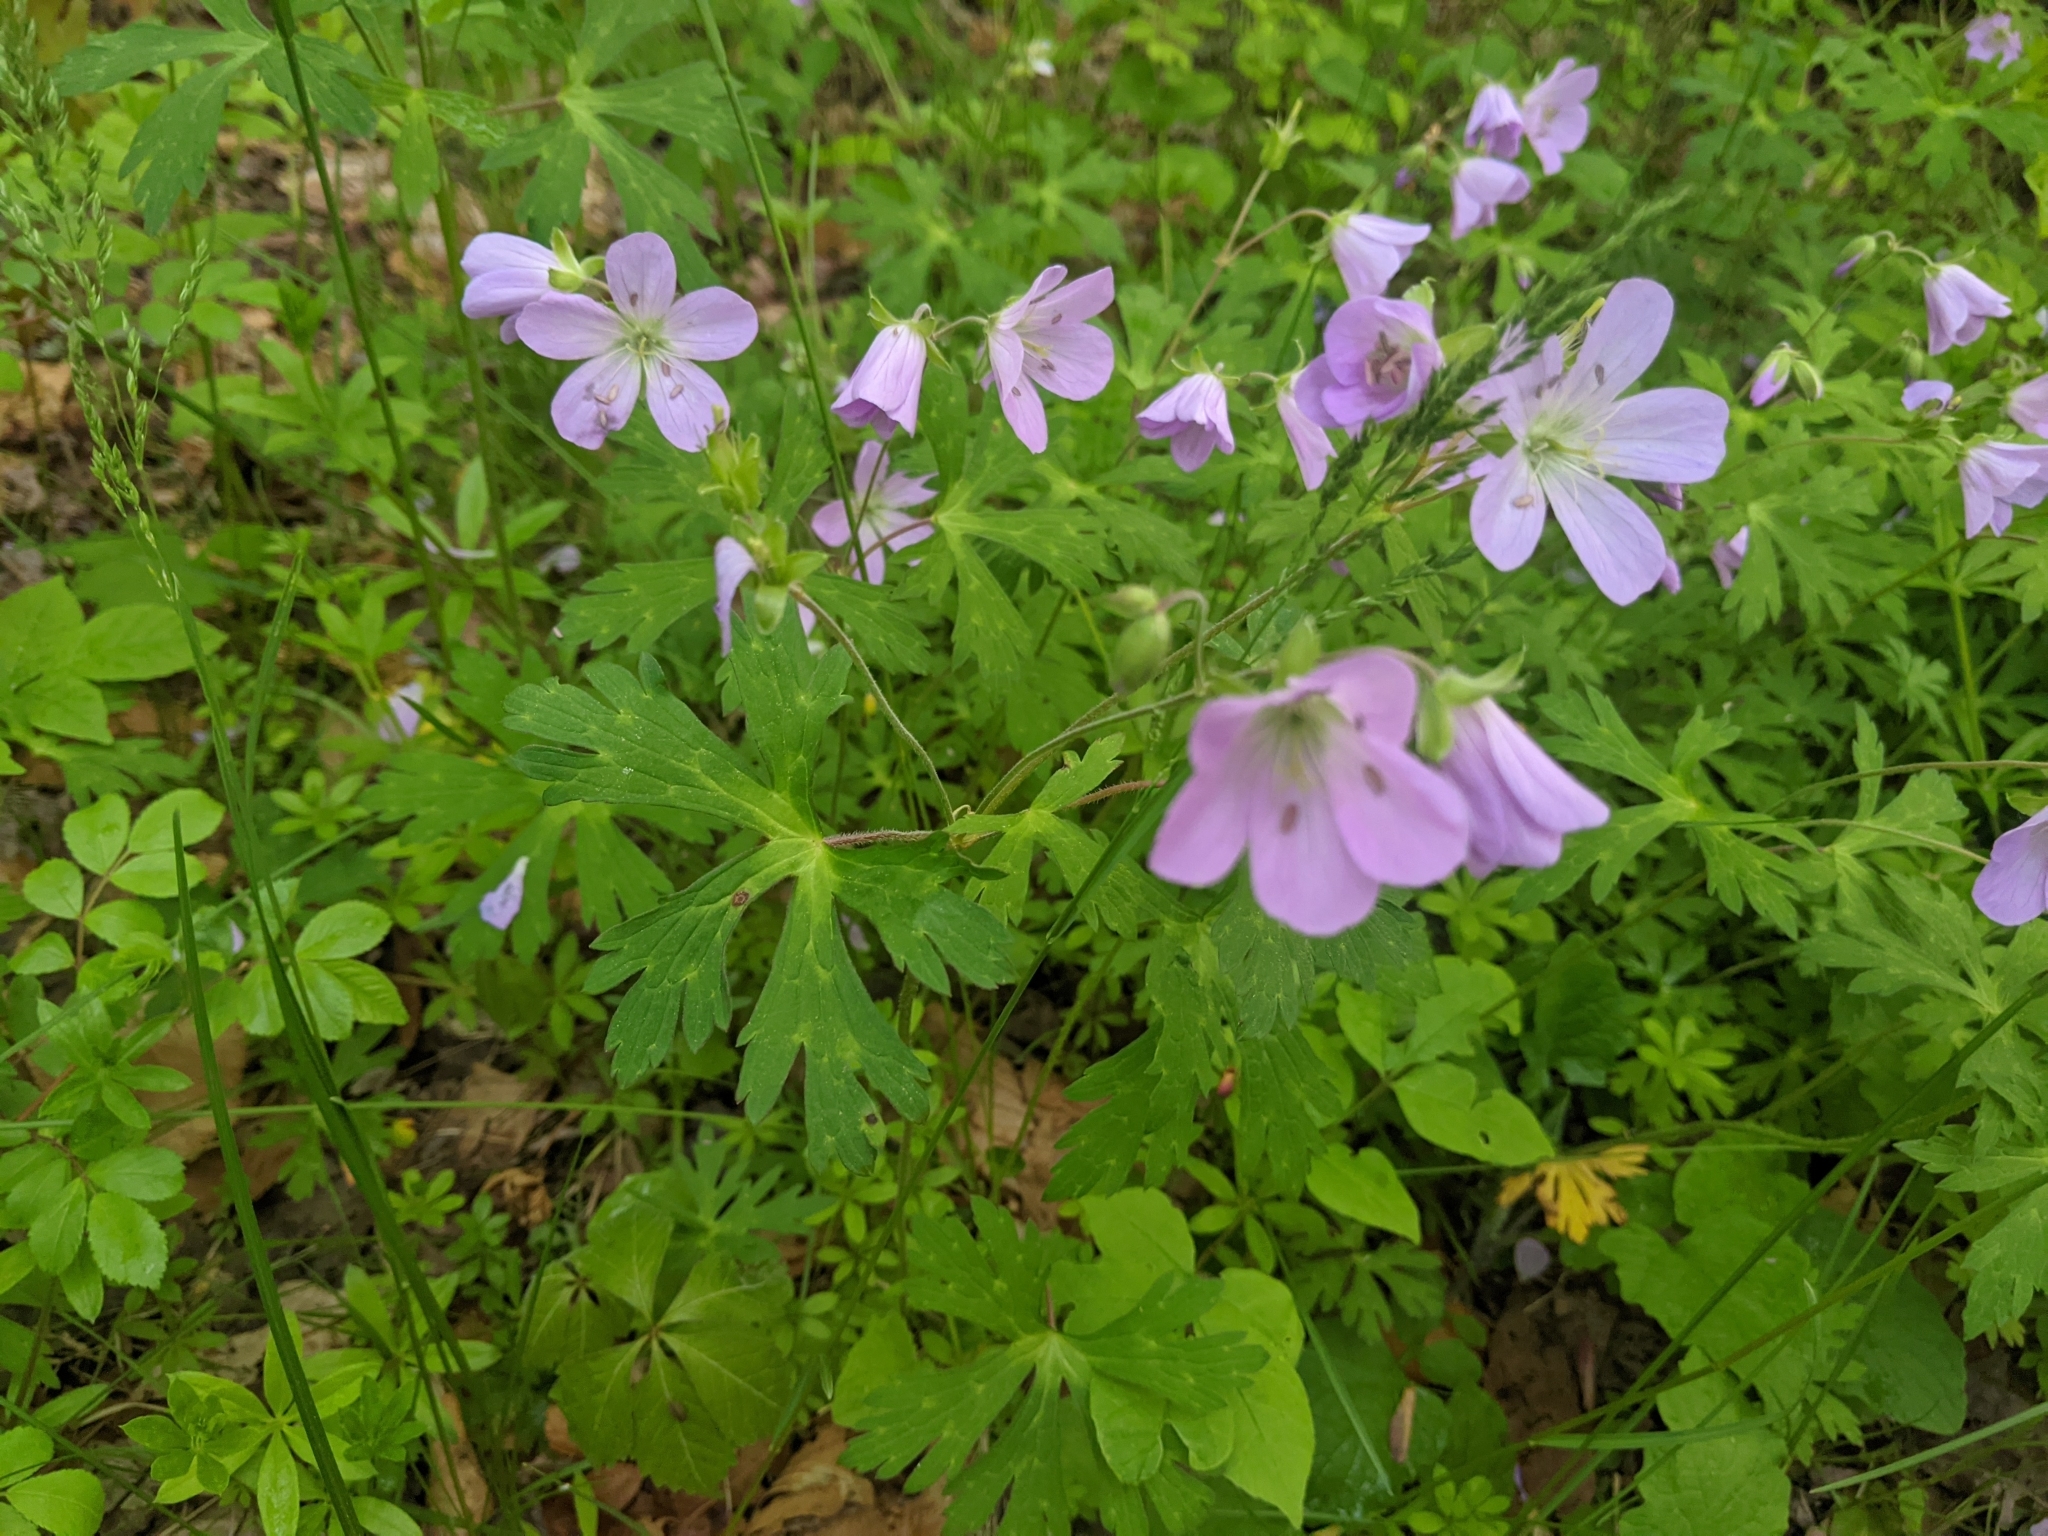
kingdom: Plantae
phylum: Tracheophyta
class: Magnoliopsida
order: Geraniales
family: Geraniaceae
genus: Geranium
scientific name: Geranium maculatum
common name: Spotted geranium
